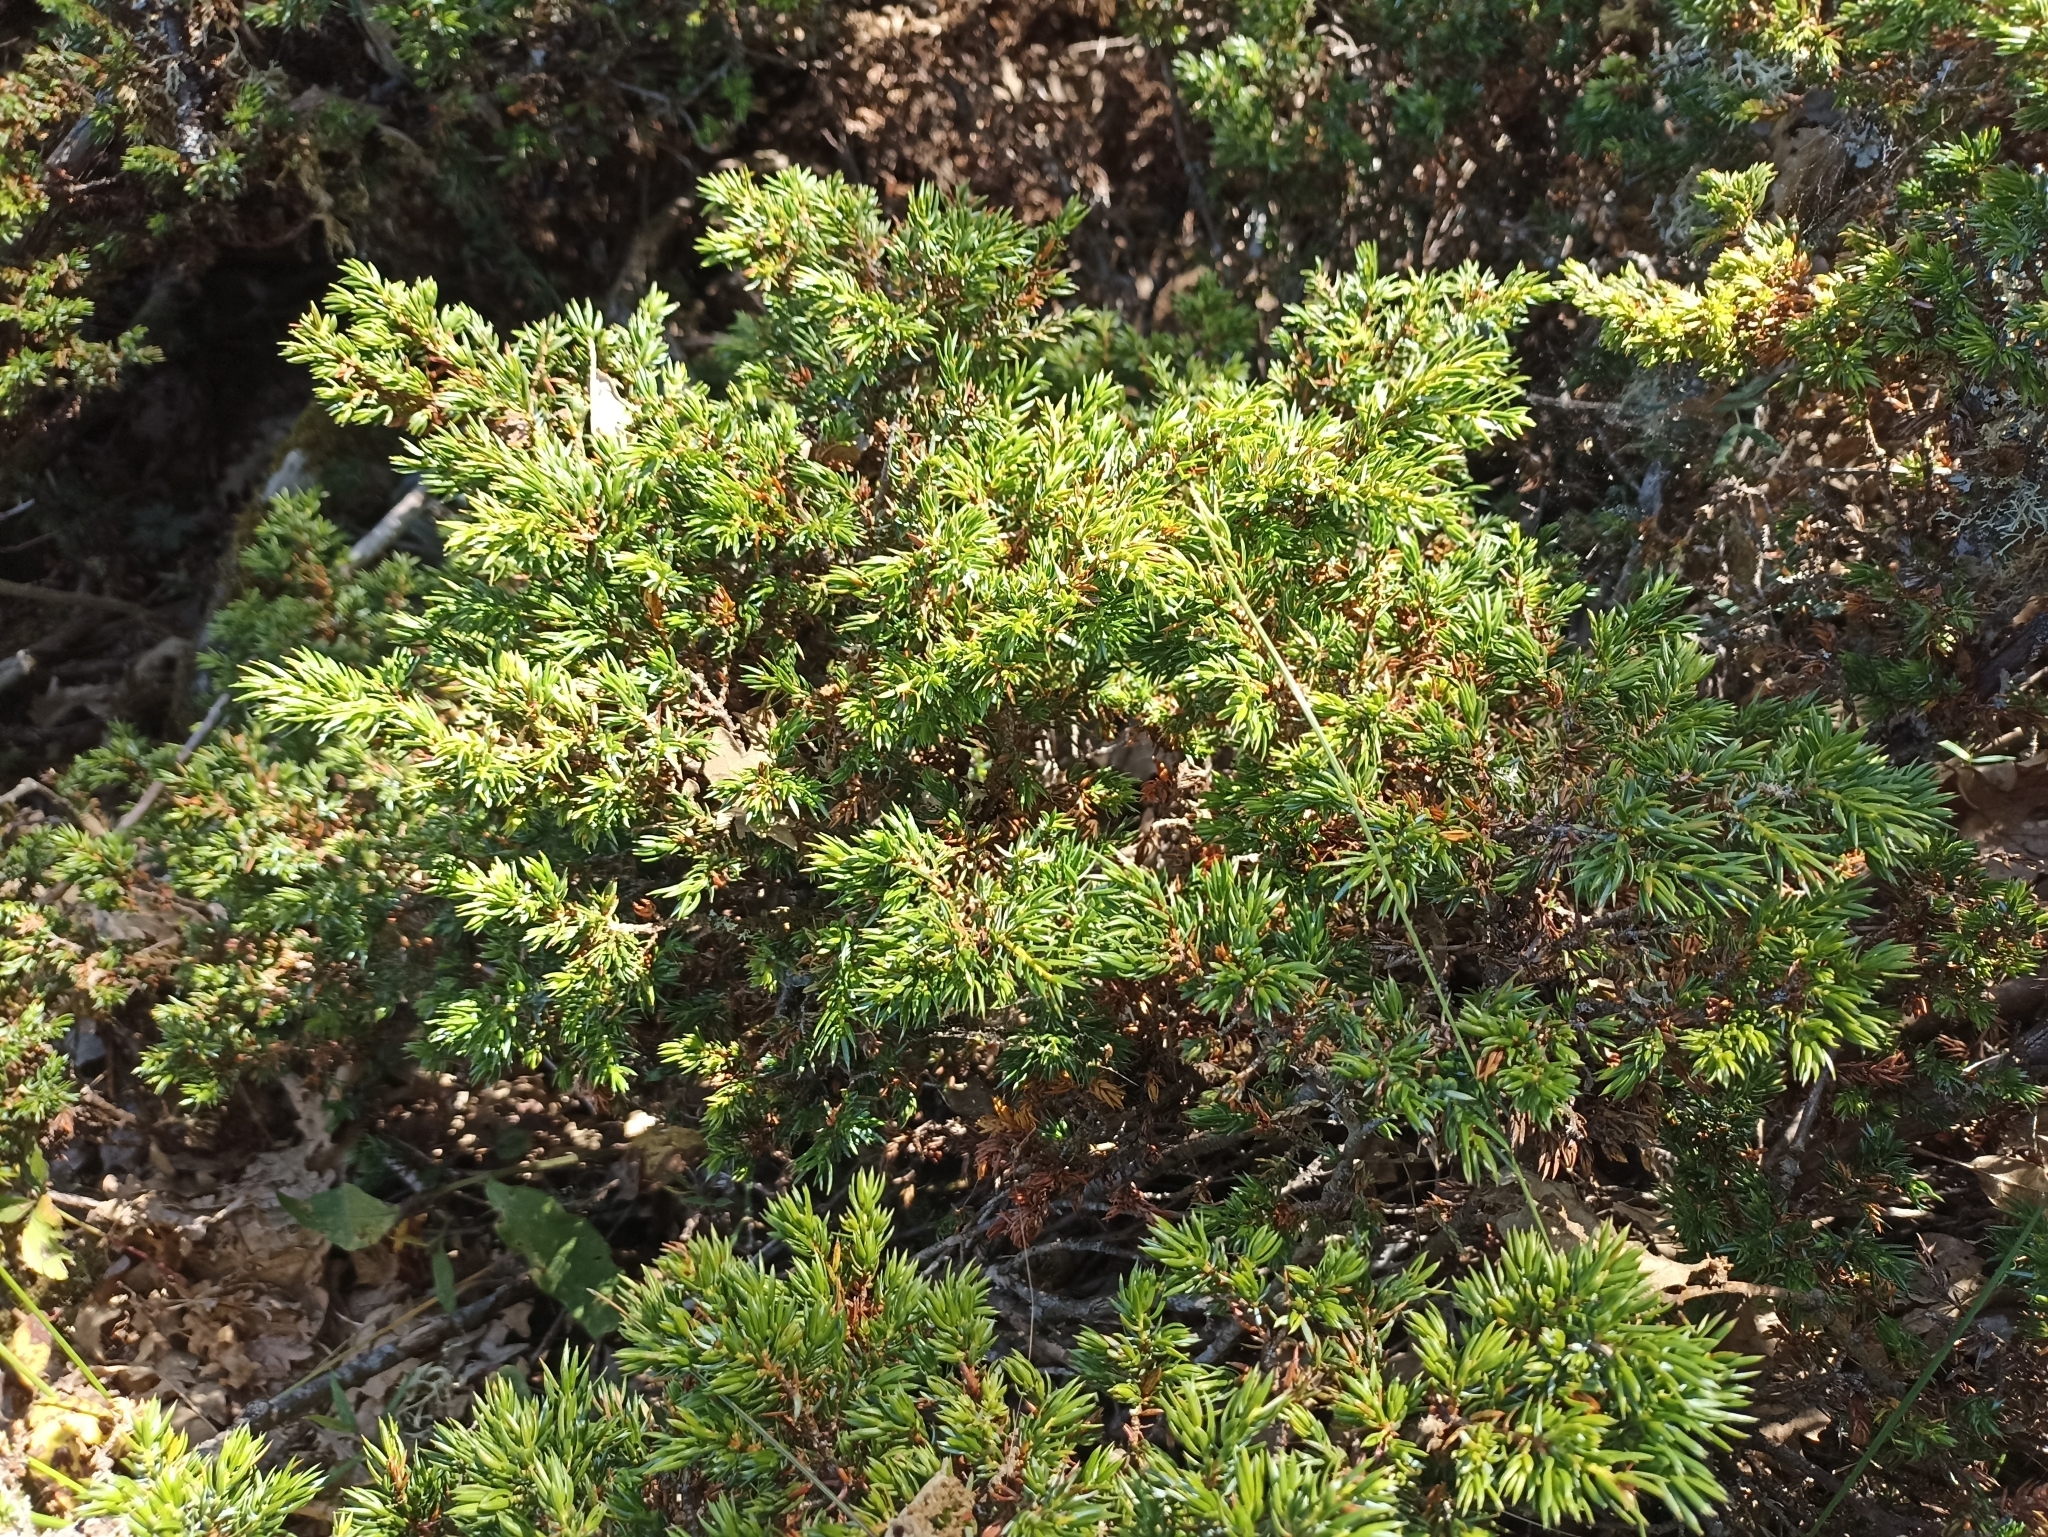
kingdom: Plantae
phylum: Tracheophyta
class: Pinopsida
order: Pinales
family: Cupressaceae
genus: Juniperus
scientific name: Juniperus communis
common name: Common juniper
